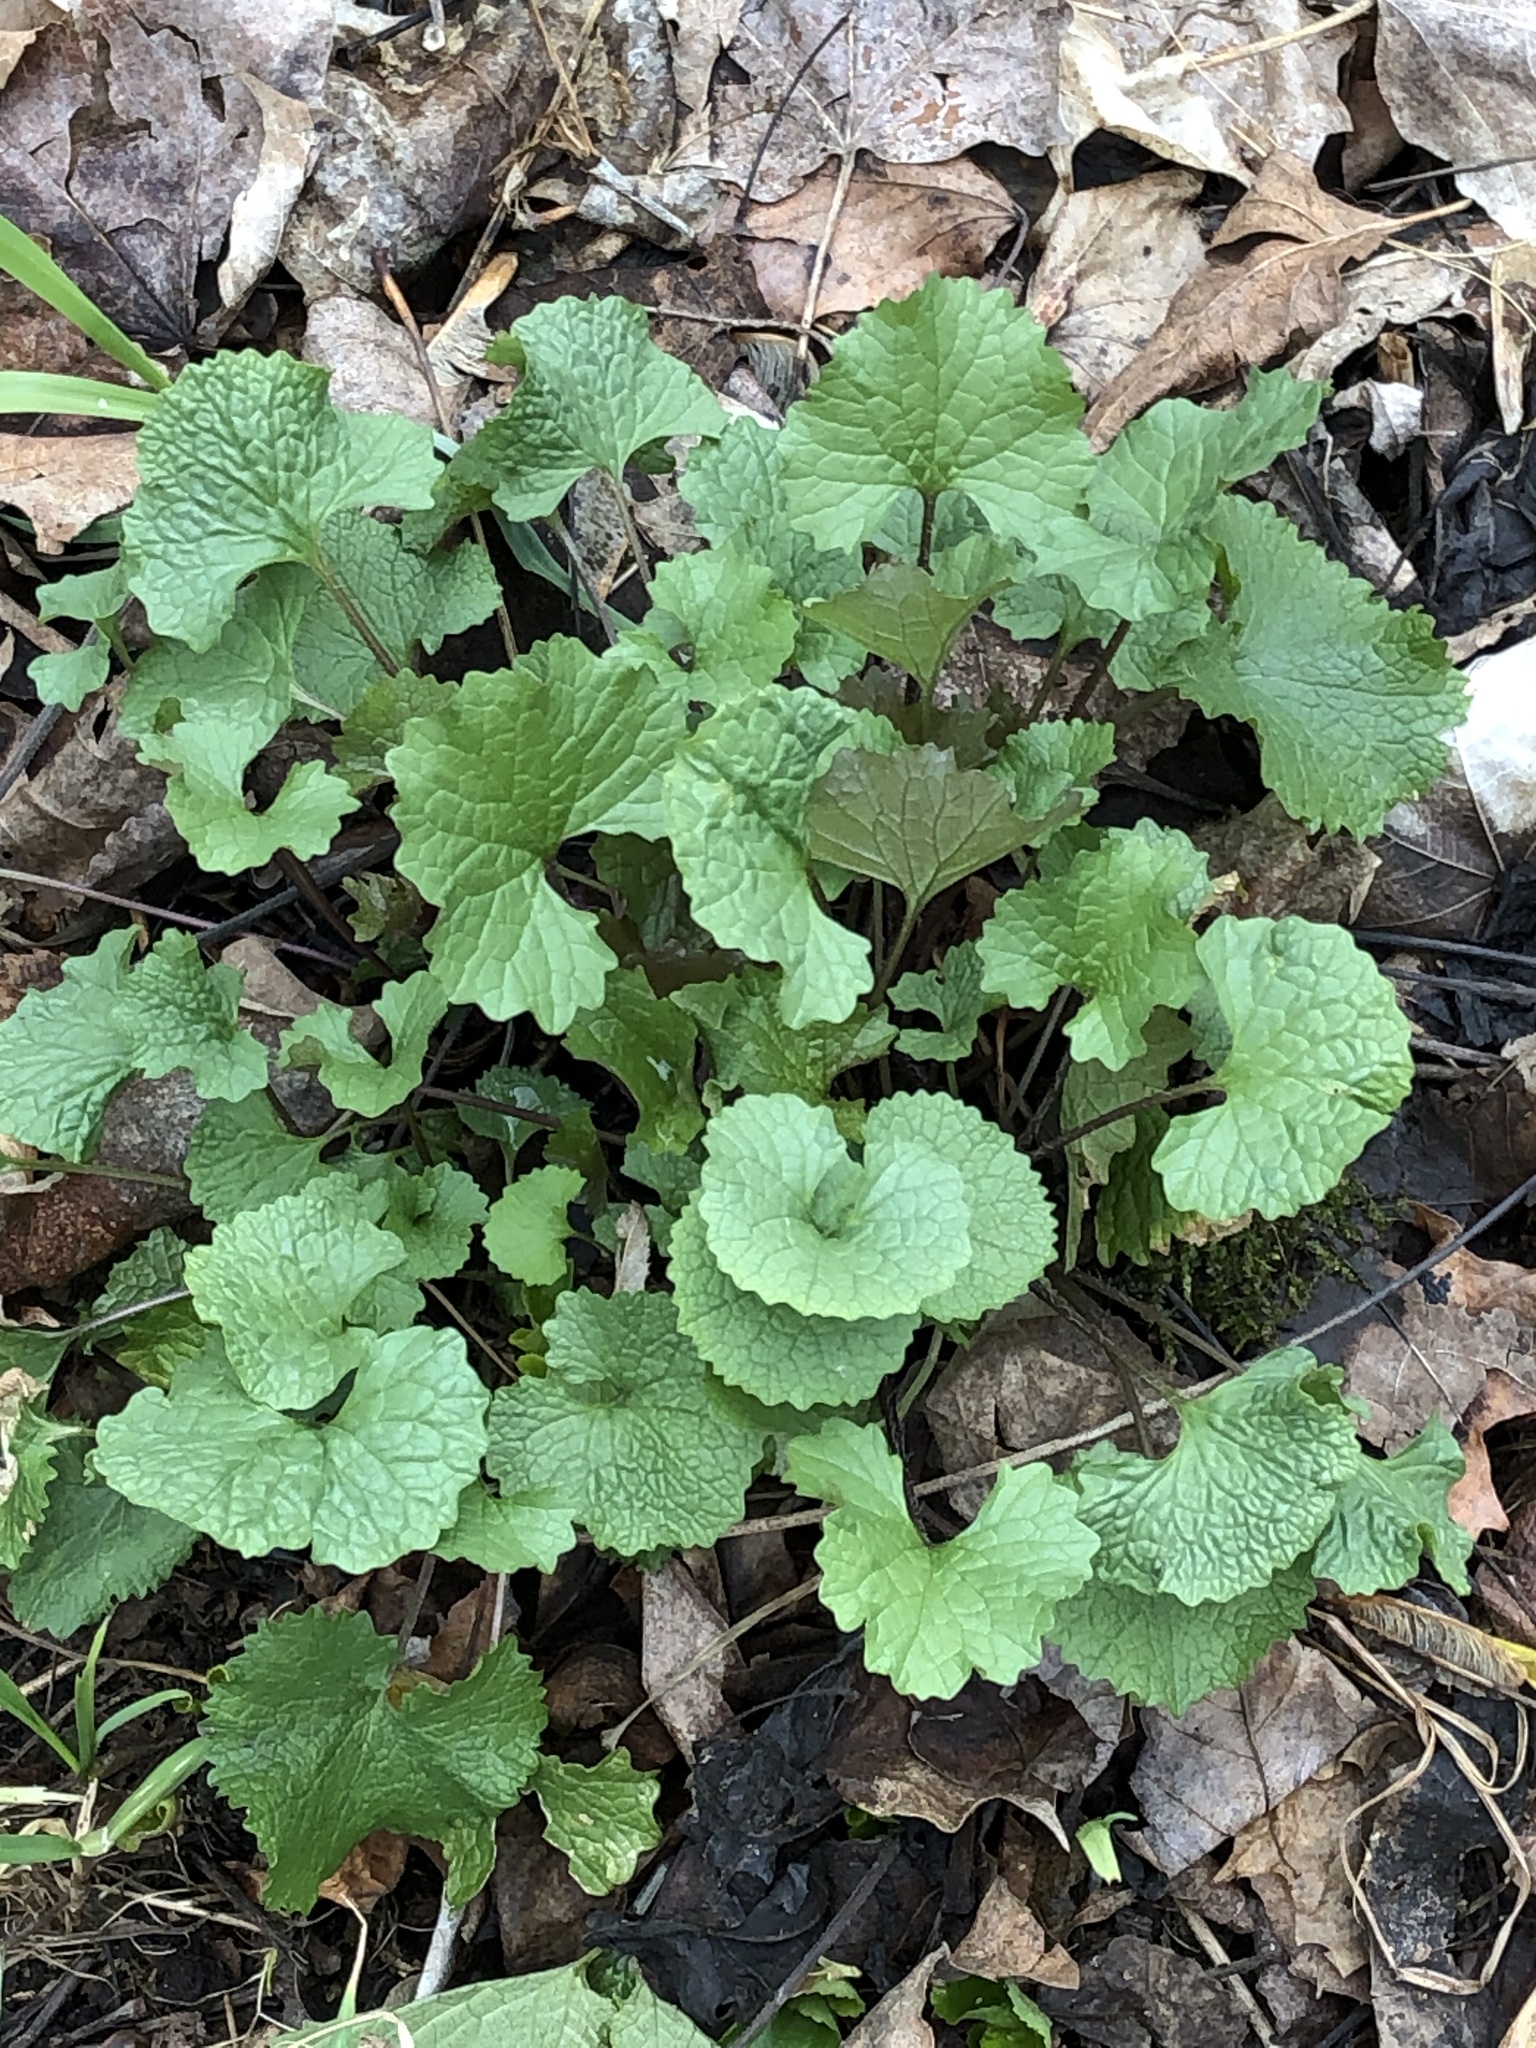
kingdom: Plantae
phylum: Tracheophyta
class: Magnoliopsida
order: Brassicales
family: Brassicaceae
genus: Alliaria
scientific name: Alliaria petiolata
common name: Garlic mustard
